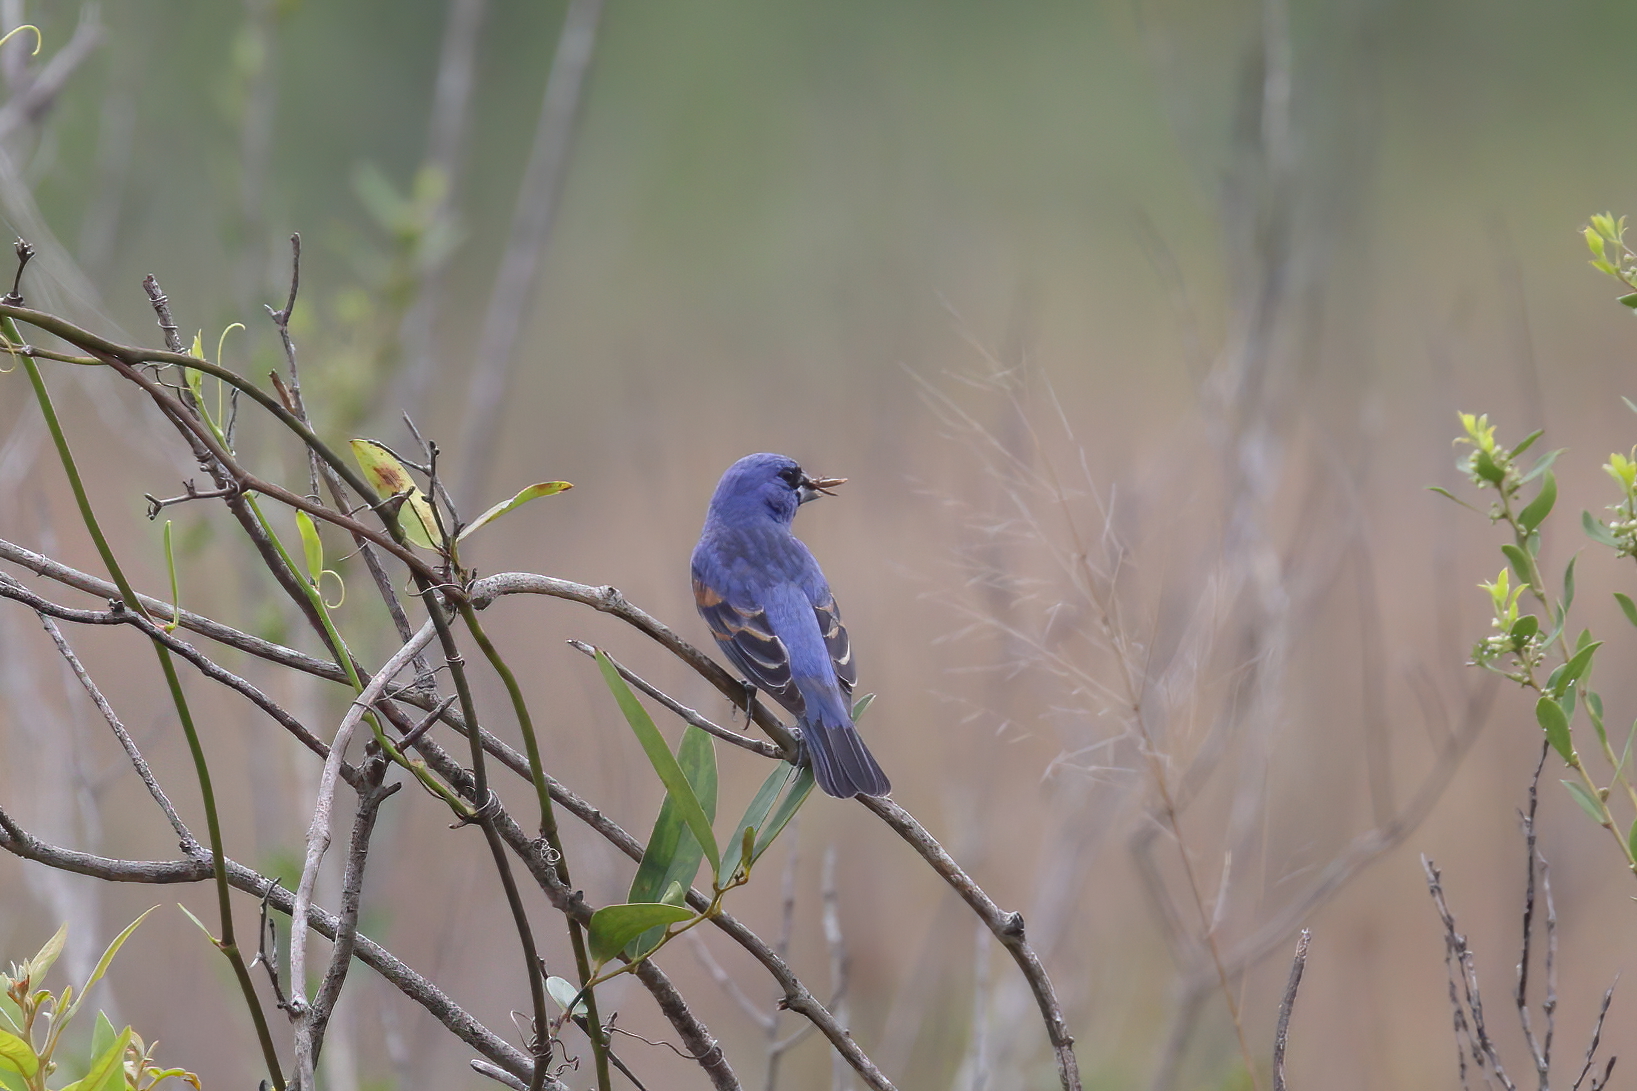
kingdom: Animalia
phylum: Chordata
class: Aves
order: Passeriformes
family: Cardinalidae
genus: Passerina
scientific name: Passerina caerulea
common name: Blue grosbeak
